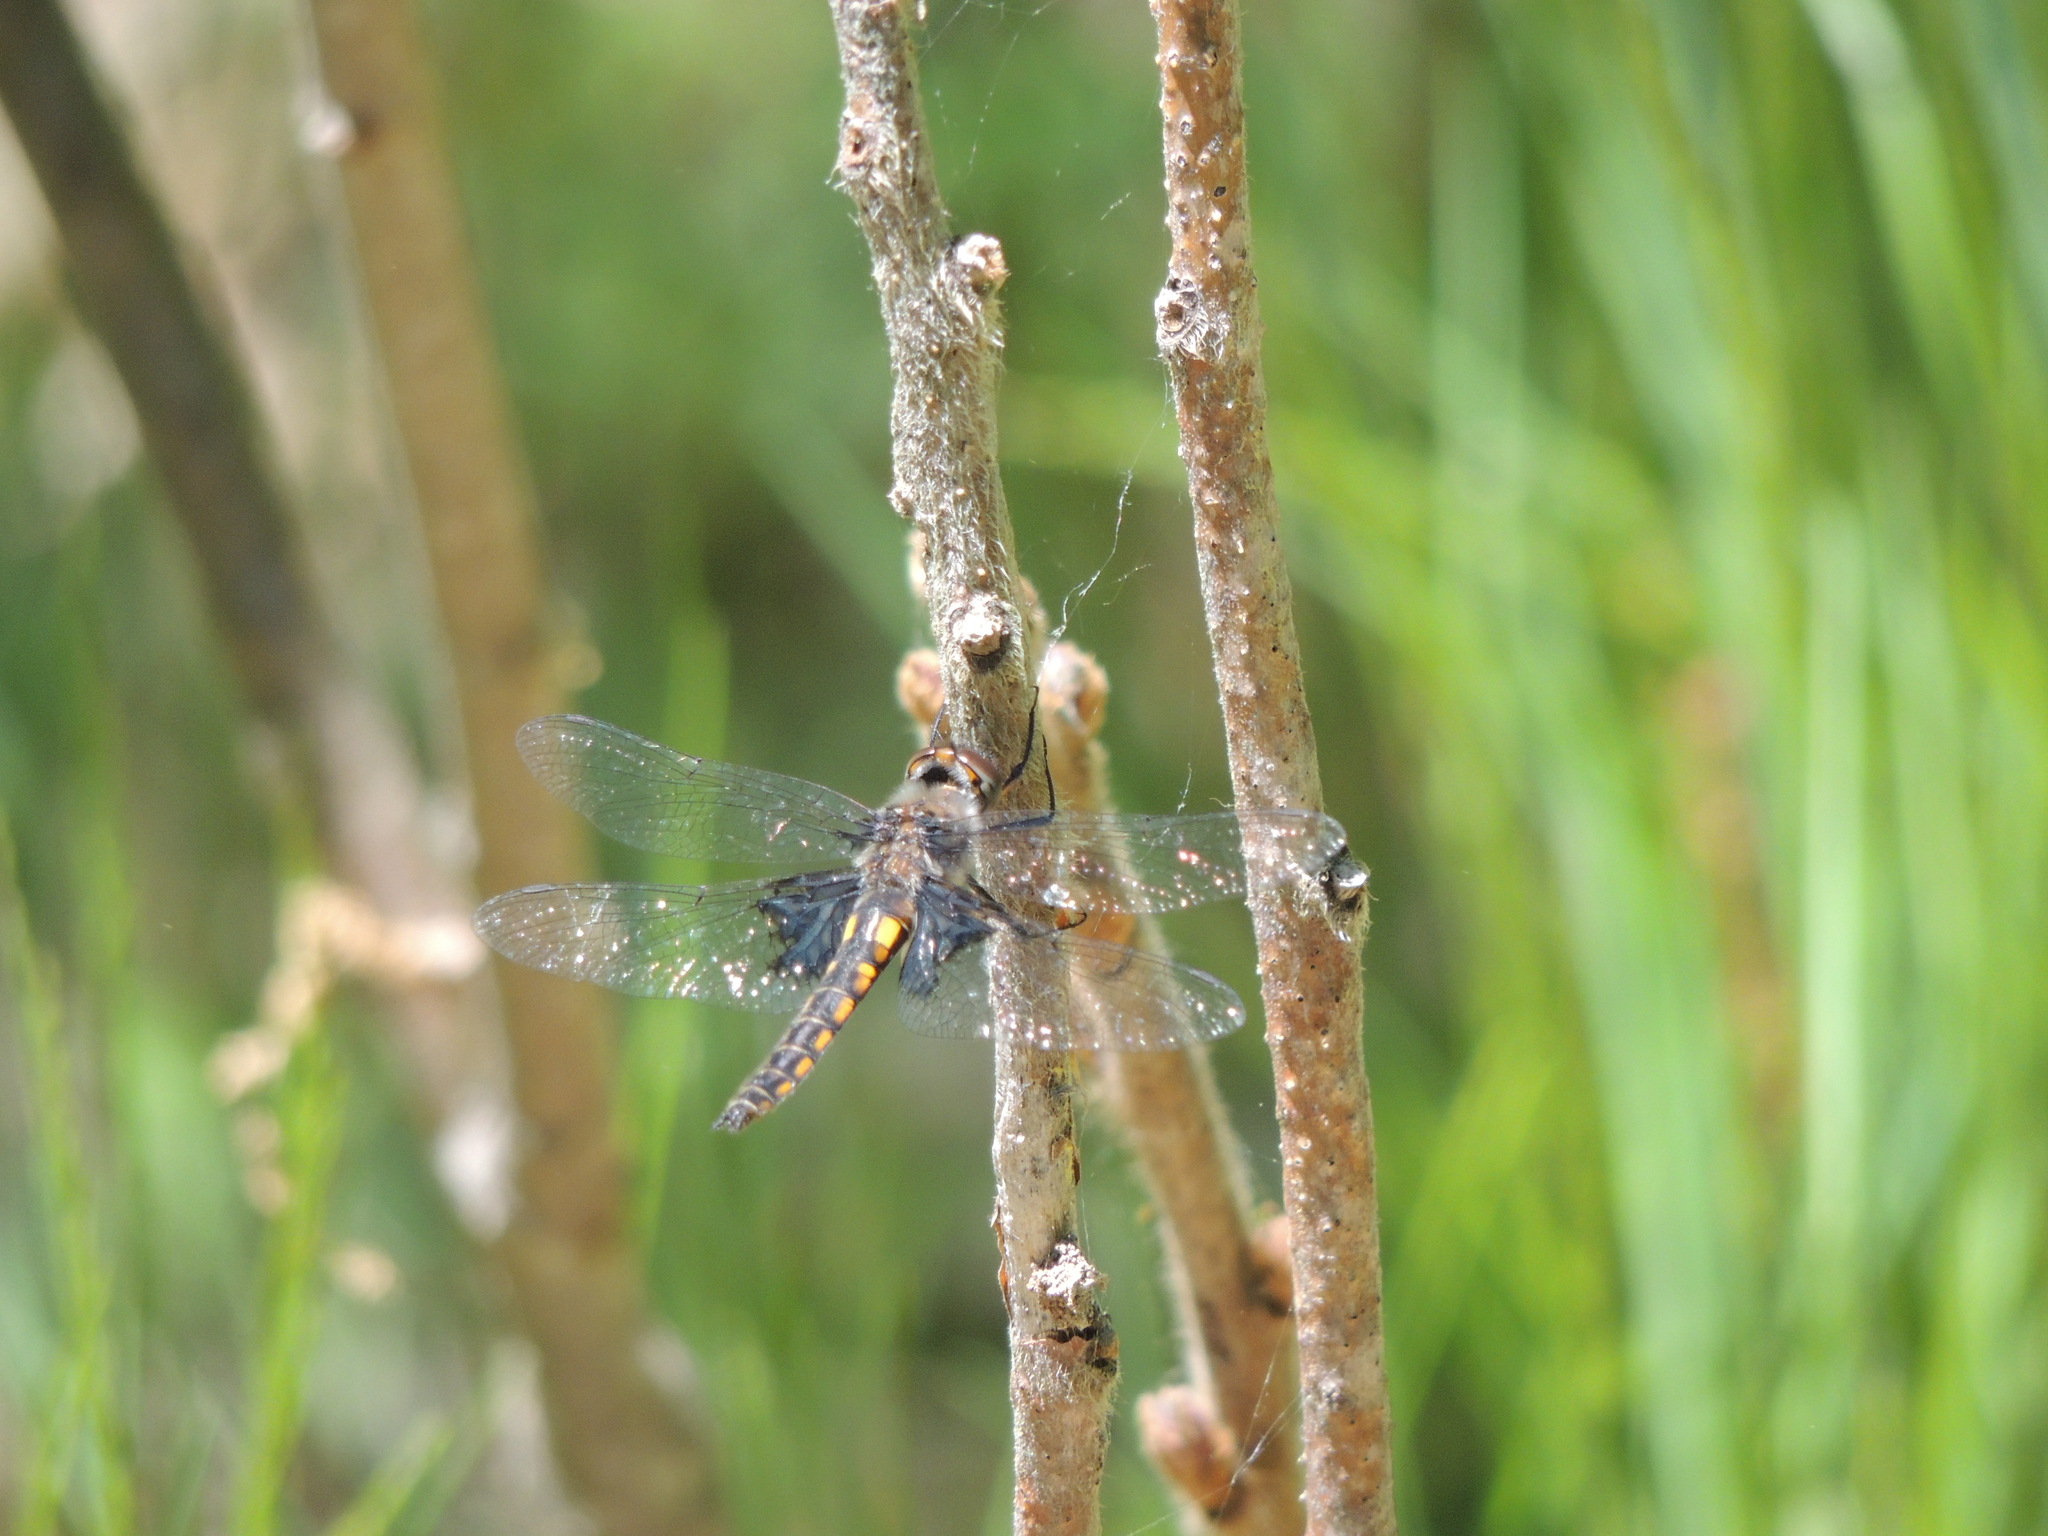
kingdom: Animalia
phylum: Arthropoda
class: Insecta
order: Odonata
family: Corduliidae
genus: Epitheca
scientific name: Epitheca cynosura
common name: Common baskettail
